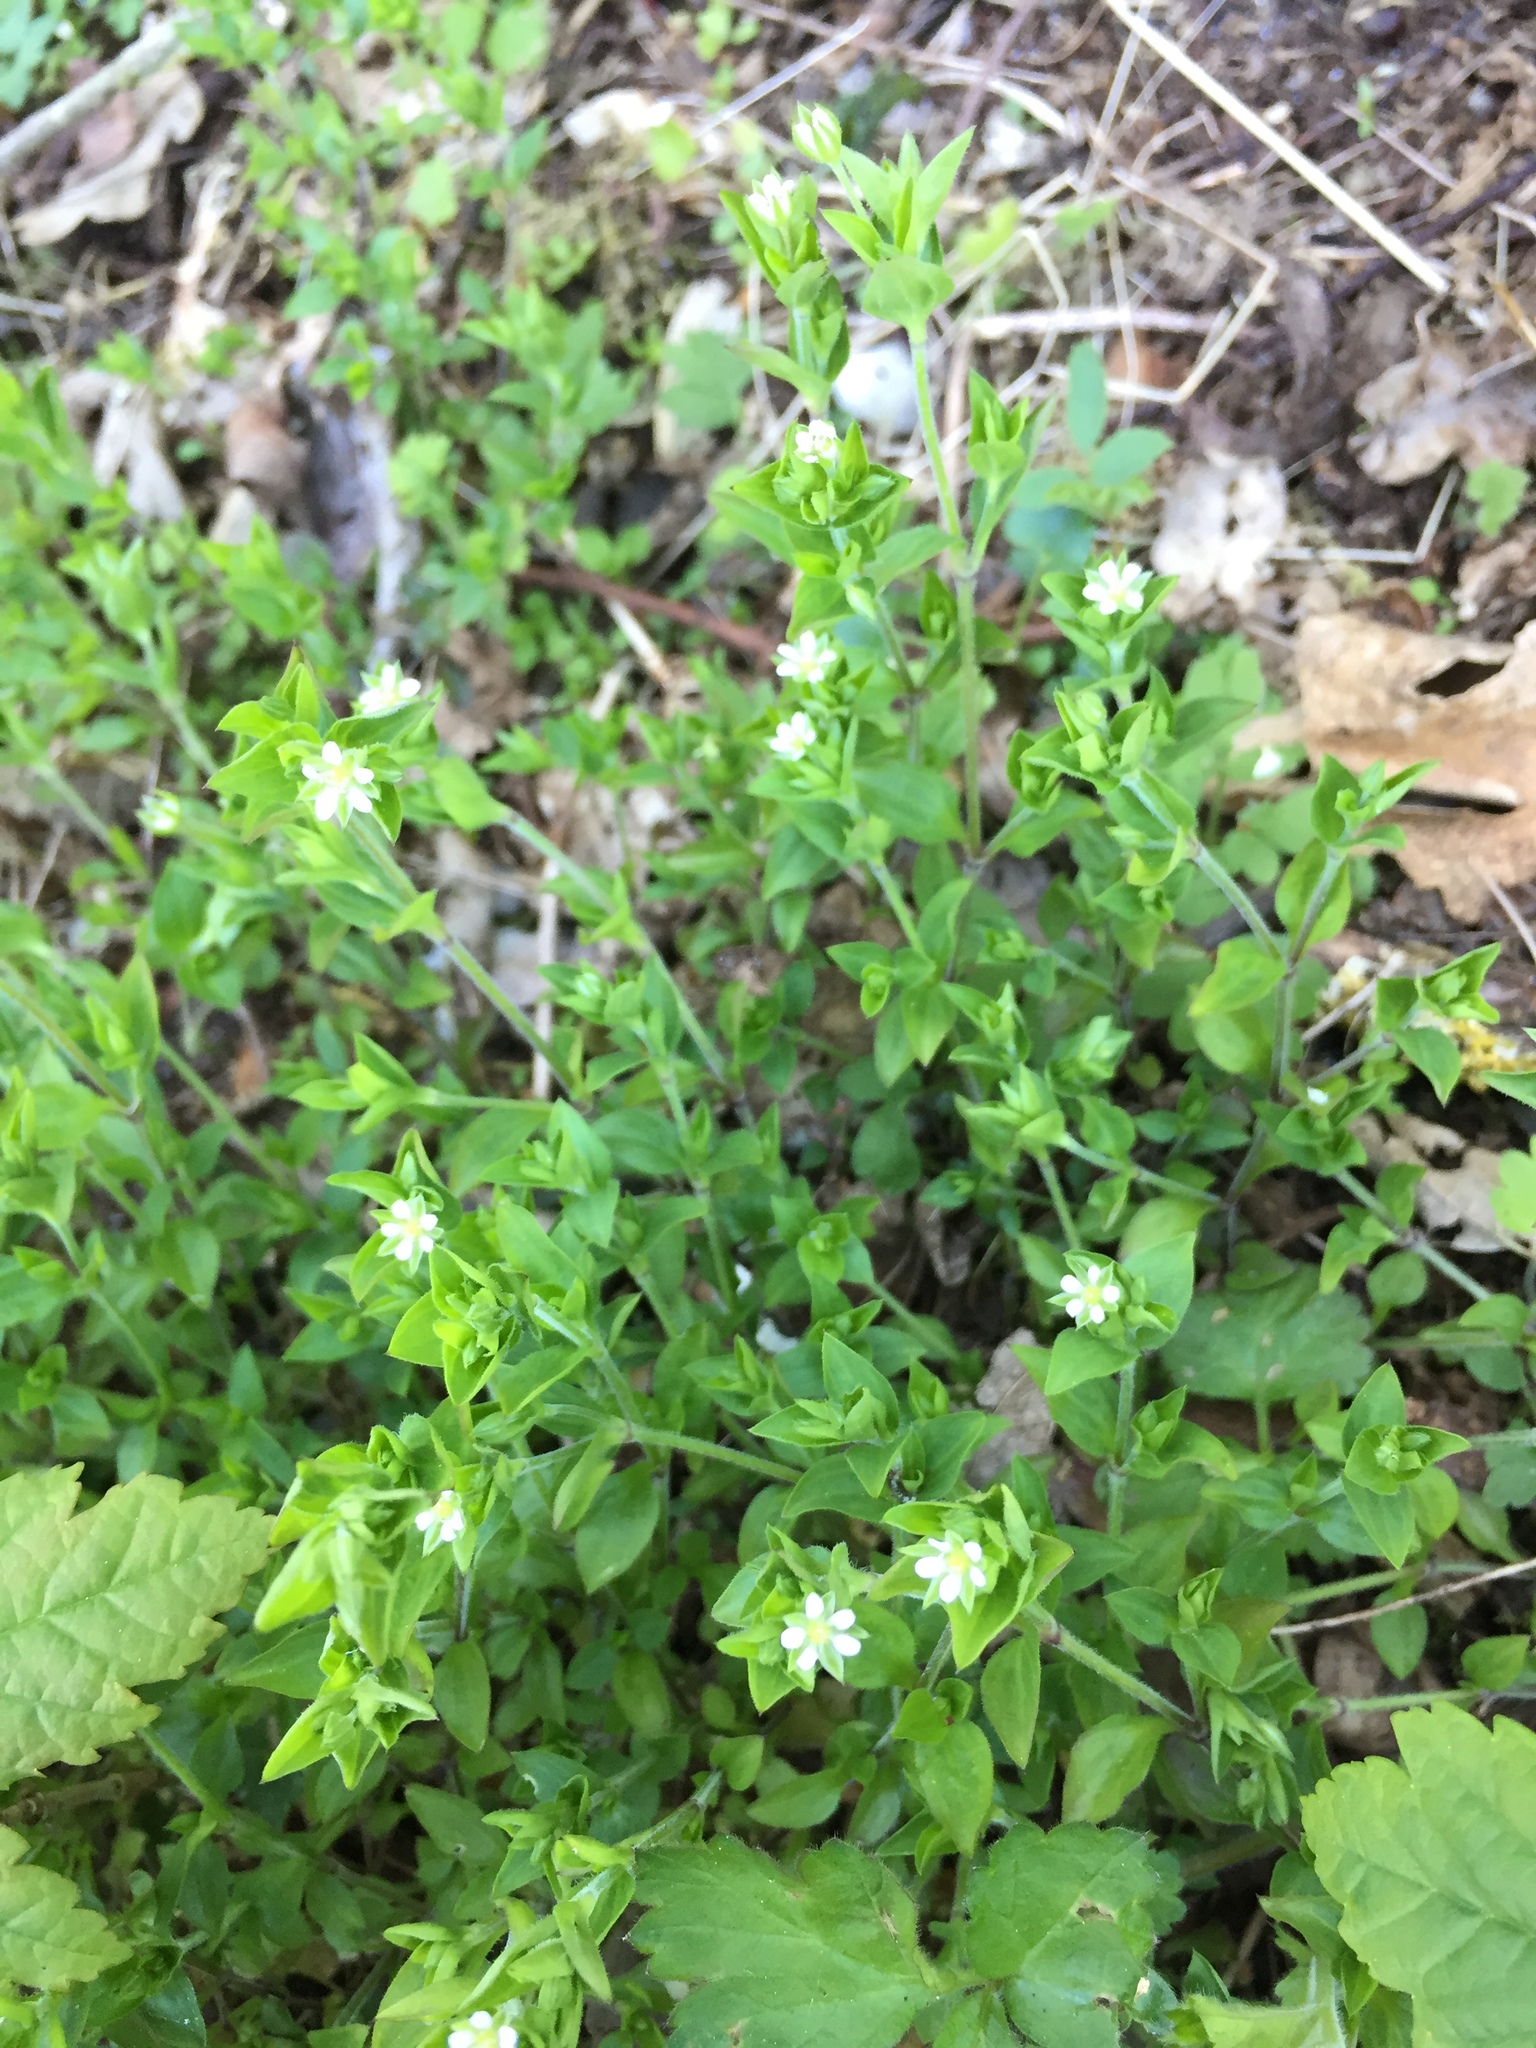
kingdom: Plantae
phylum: Tracheophyta
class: Magnoliopsida
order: Caryophyllales
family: Caryophyllaceae
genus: Moehringia
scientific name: Moehringia trinervia
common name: Three-nerved sandwort
